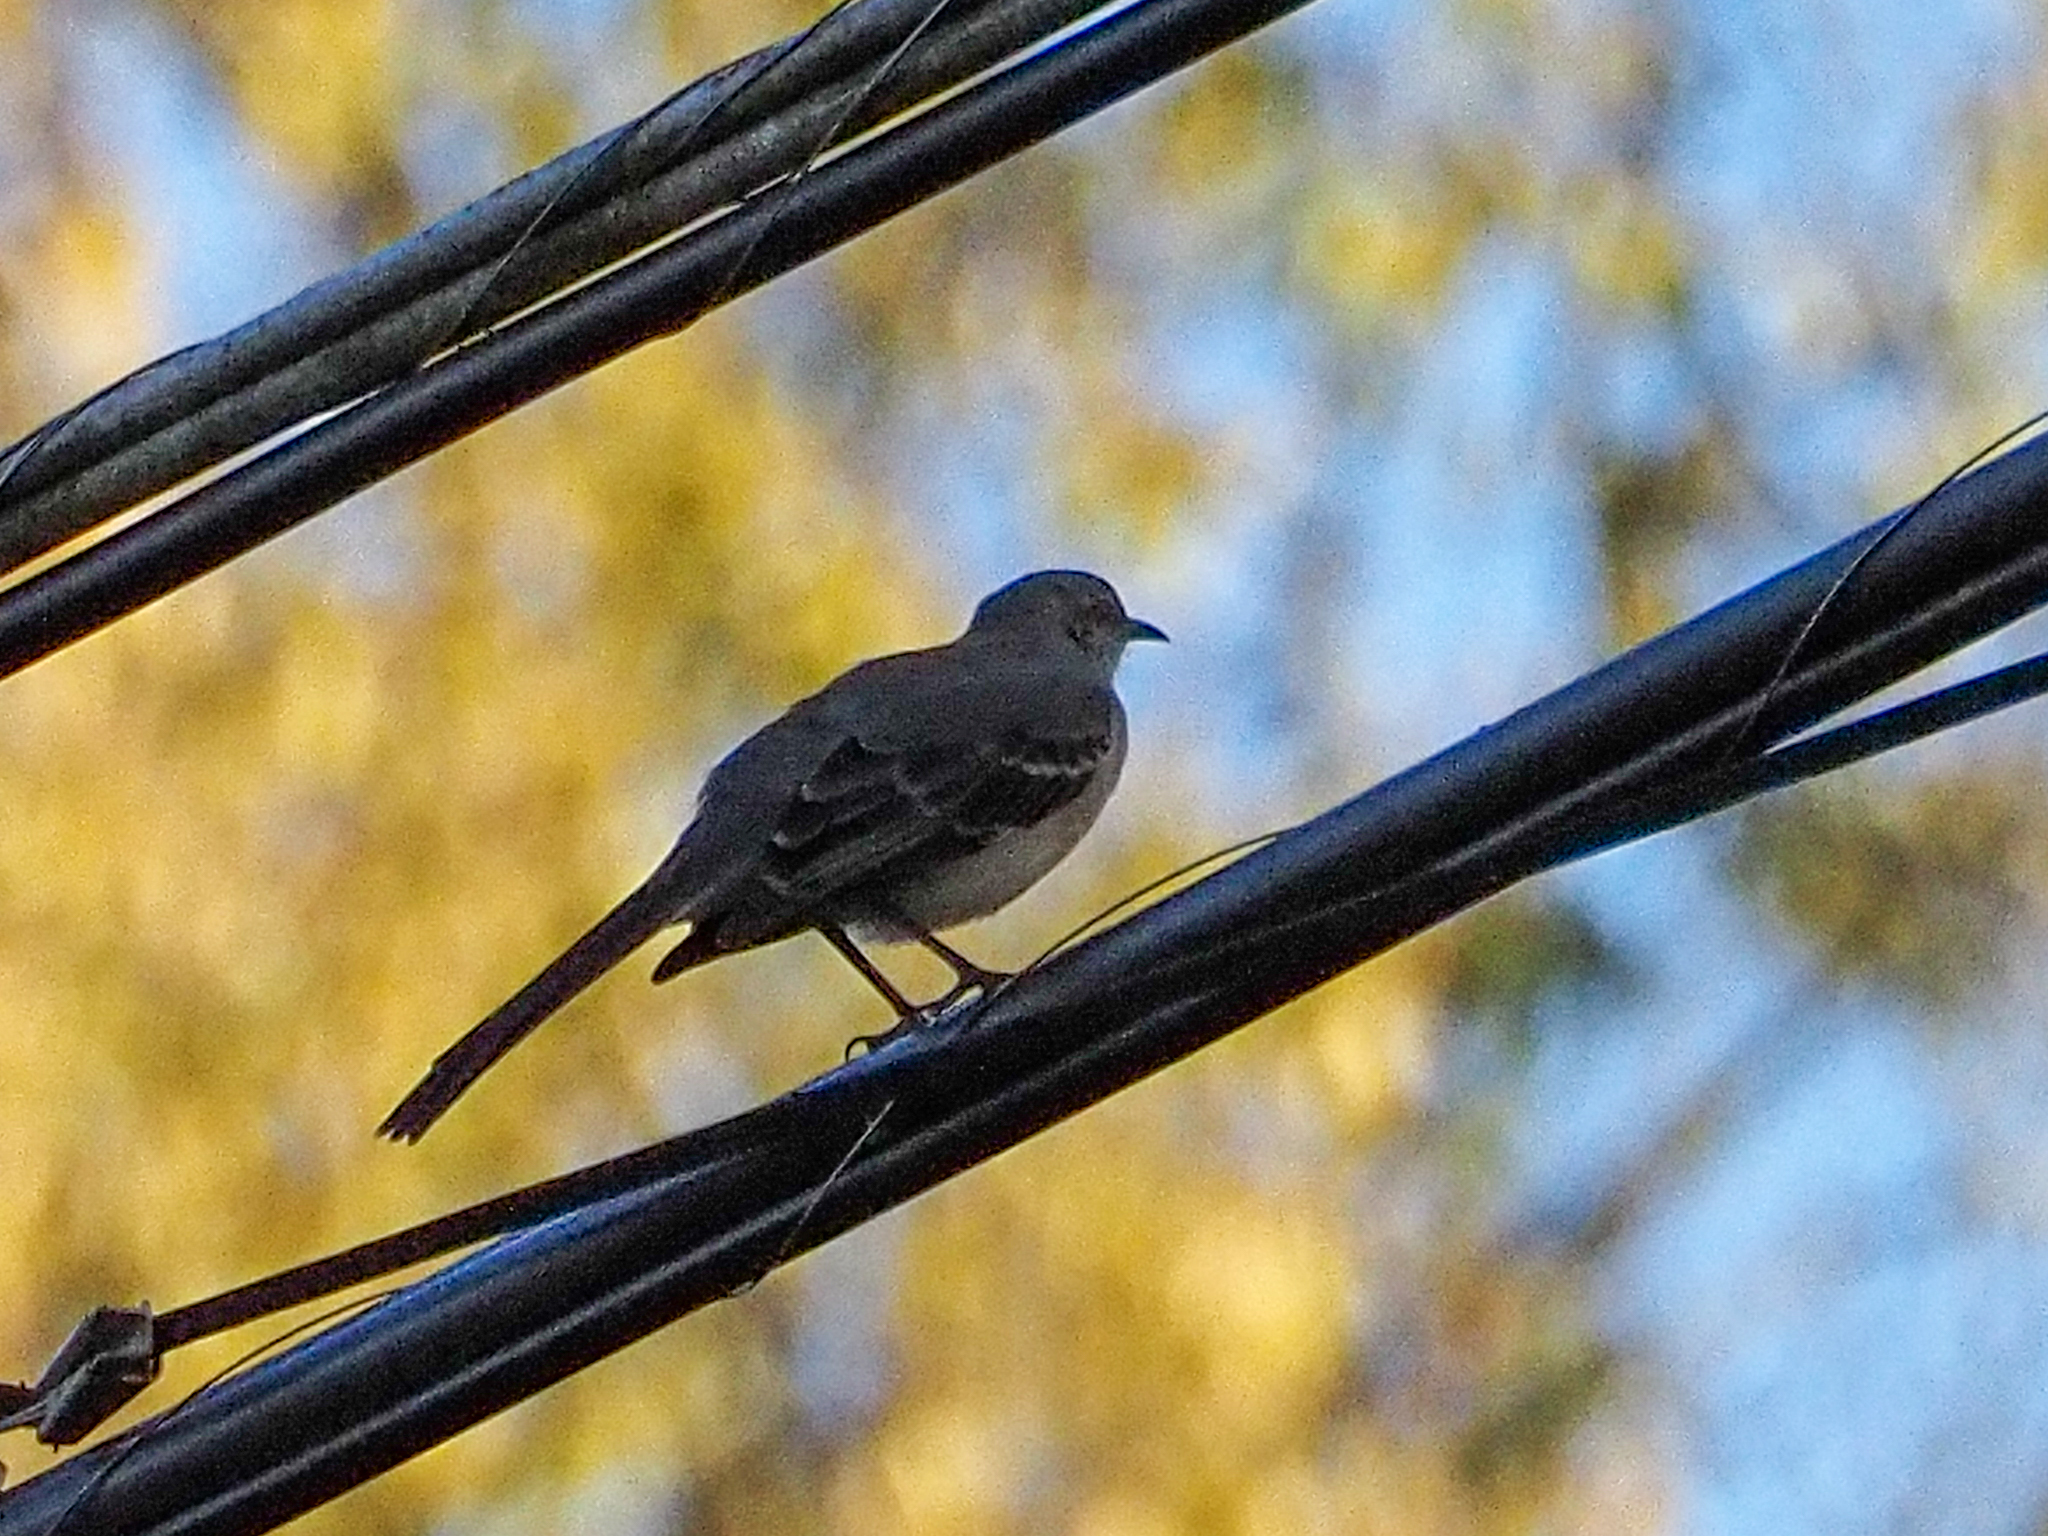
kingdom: Animalia
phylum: Chordata
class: Aves
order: Passeriformes
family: Mimidae
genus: Mimus
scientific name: Mimus polyglottos
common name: Northern mockingbird
